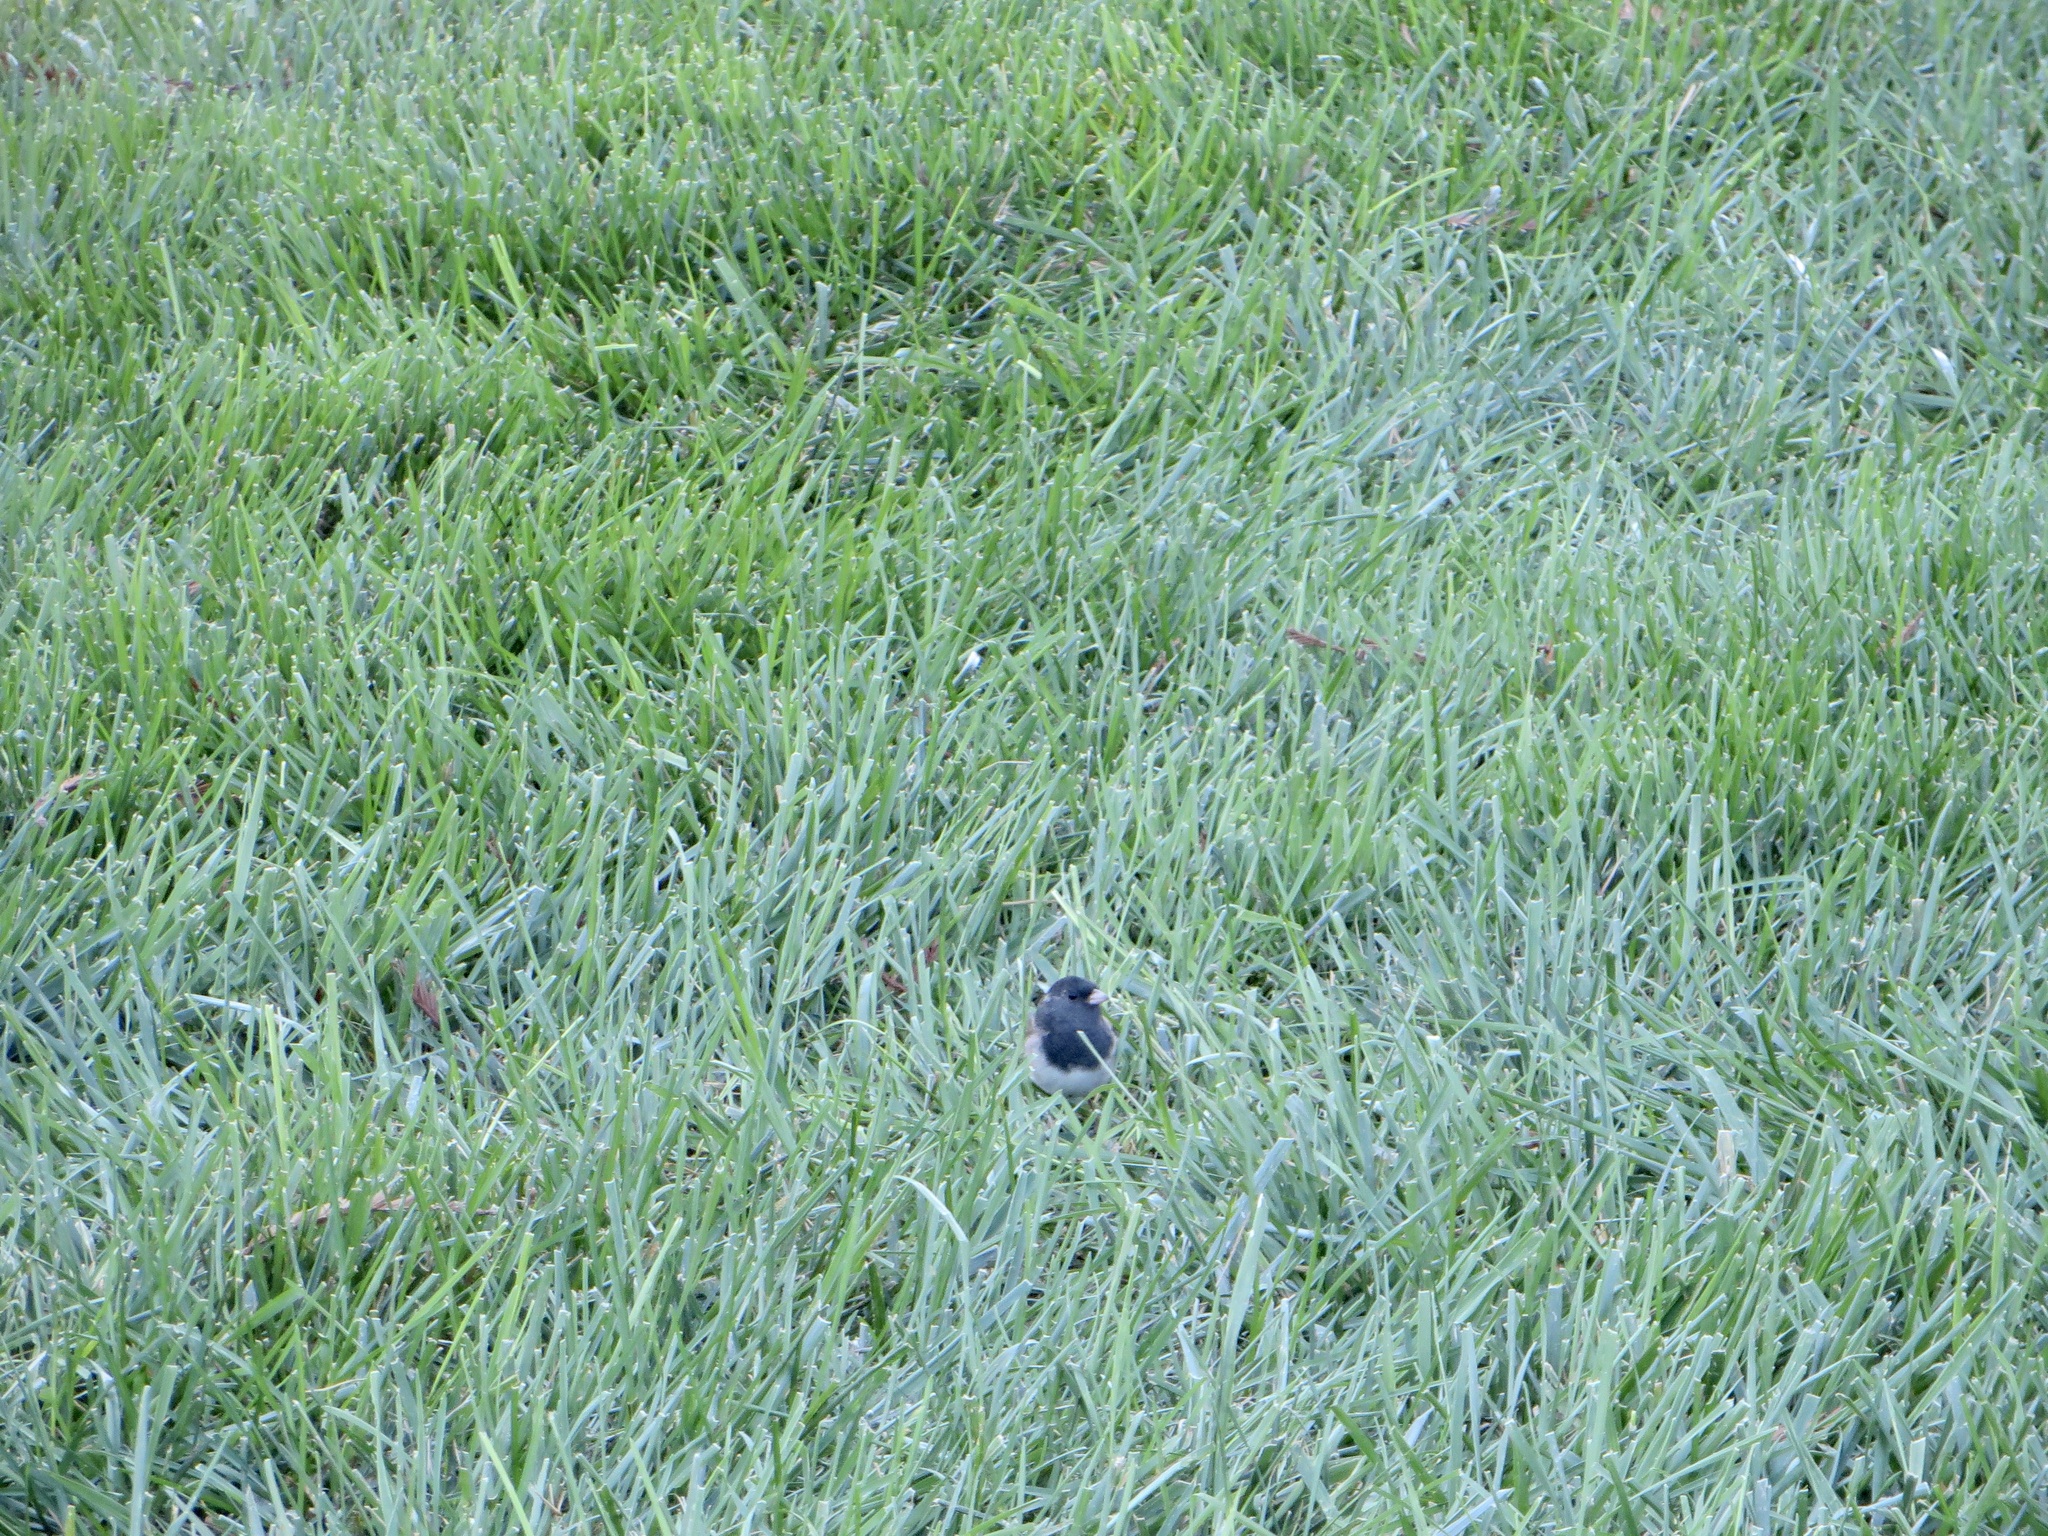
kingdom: Animalia
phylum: Chordata
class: Aves
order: Passeriformes
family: Passerellidae
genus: Junco
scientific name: Junco hyemalis
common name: Dark-eyed junco
